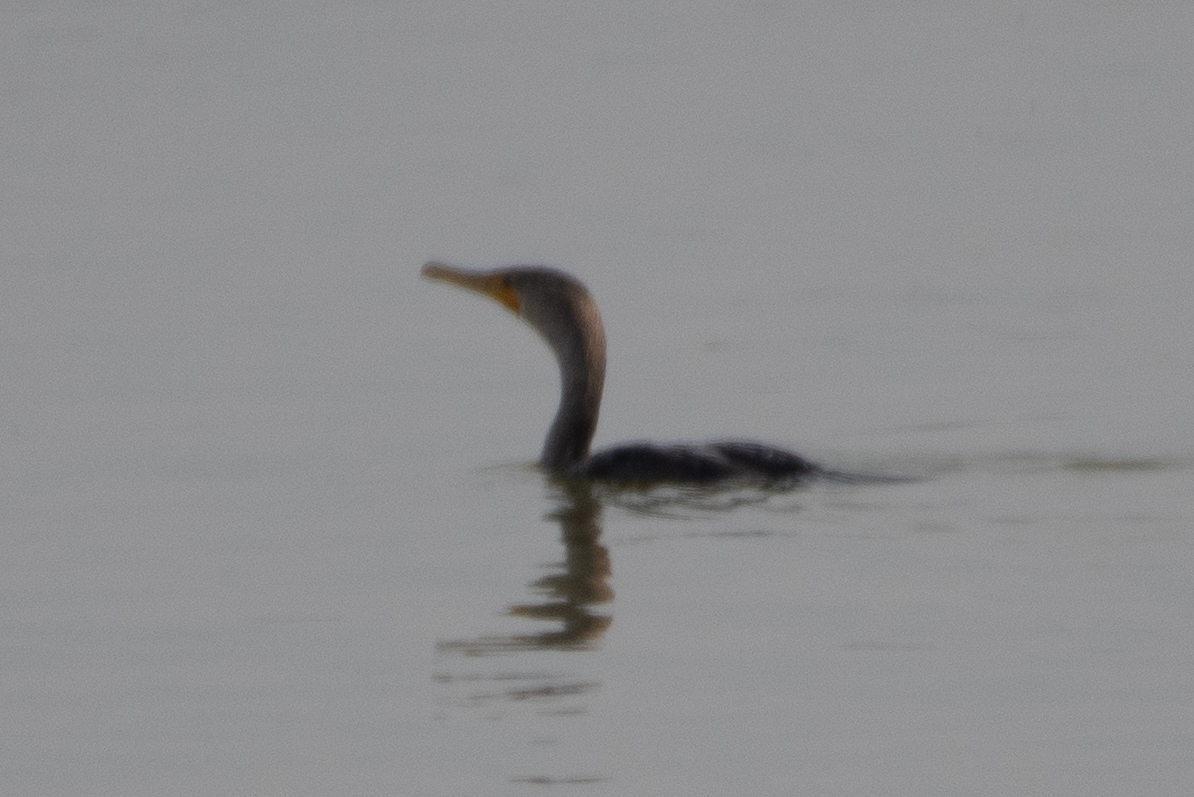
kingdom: Animalia
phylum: Chordata
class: Aves
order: Suliformes
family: Phalacrocoracidae
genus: Phalacrocorax
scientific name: Phalacrocorax auritus
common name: Double-crested cormorant
